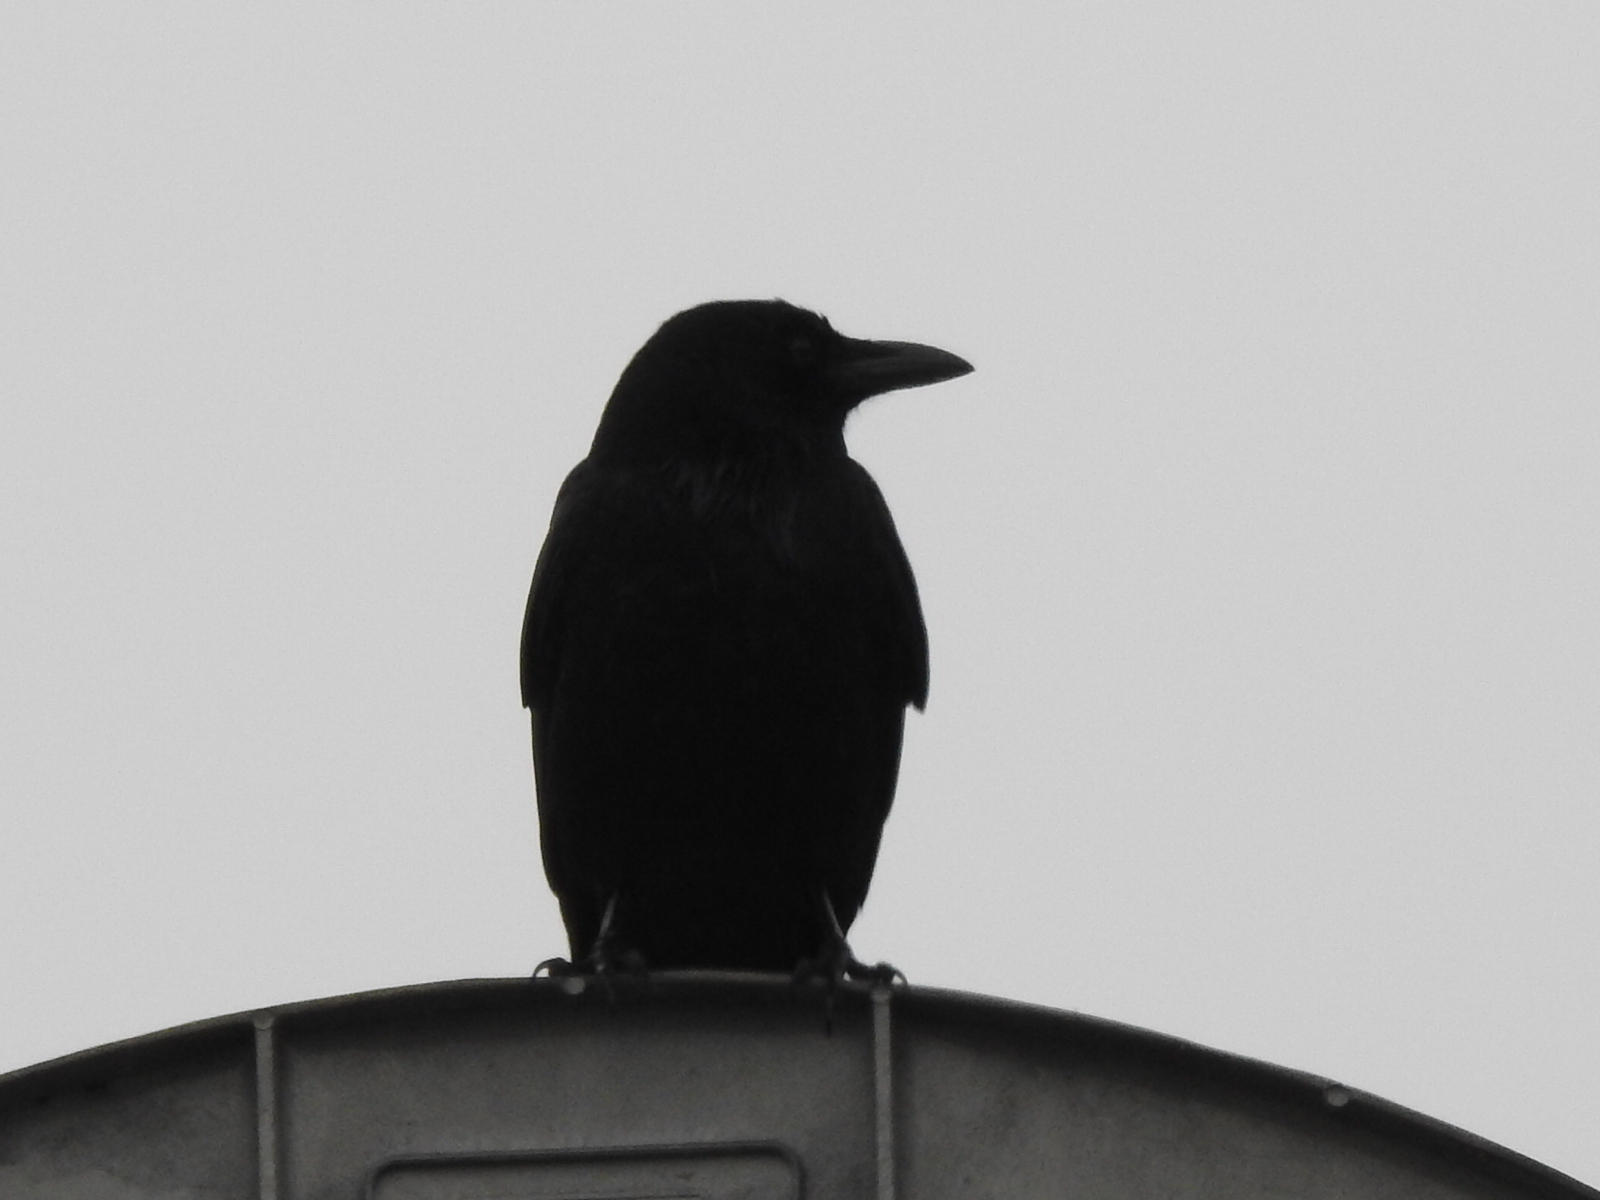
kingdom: Animalia
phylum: Chordata
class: Aves
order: Passeriformes
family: Corvidae
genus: Corvus
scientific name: Corvus brachyrhynchos
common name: American crow
